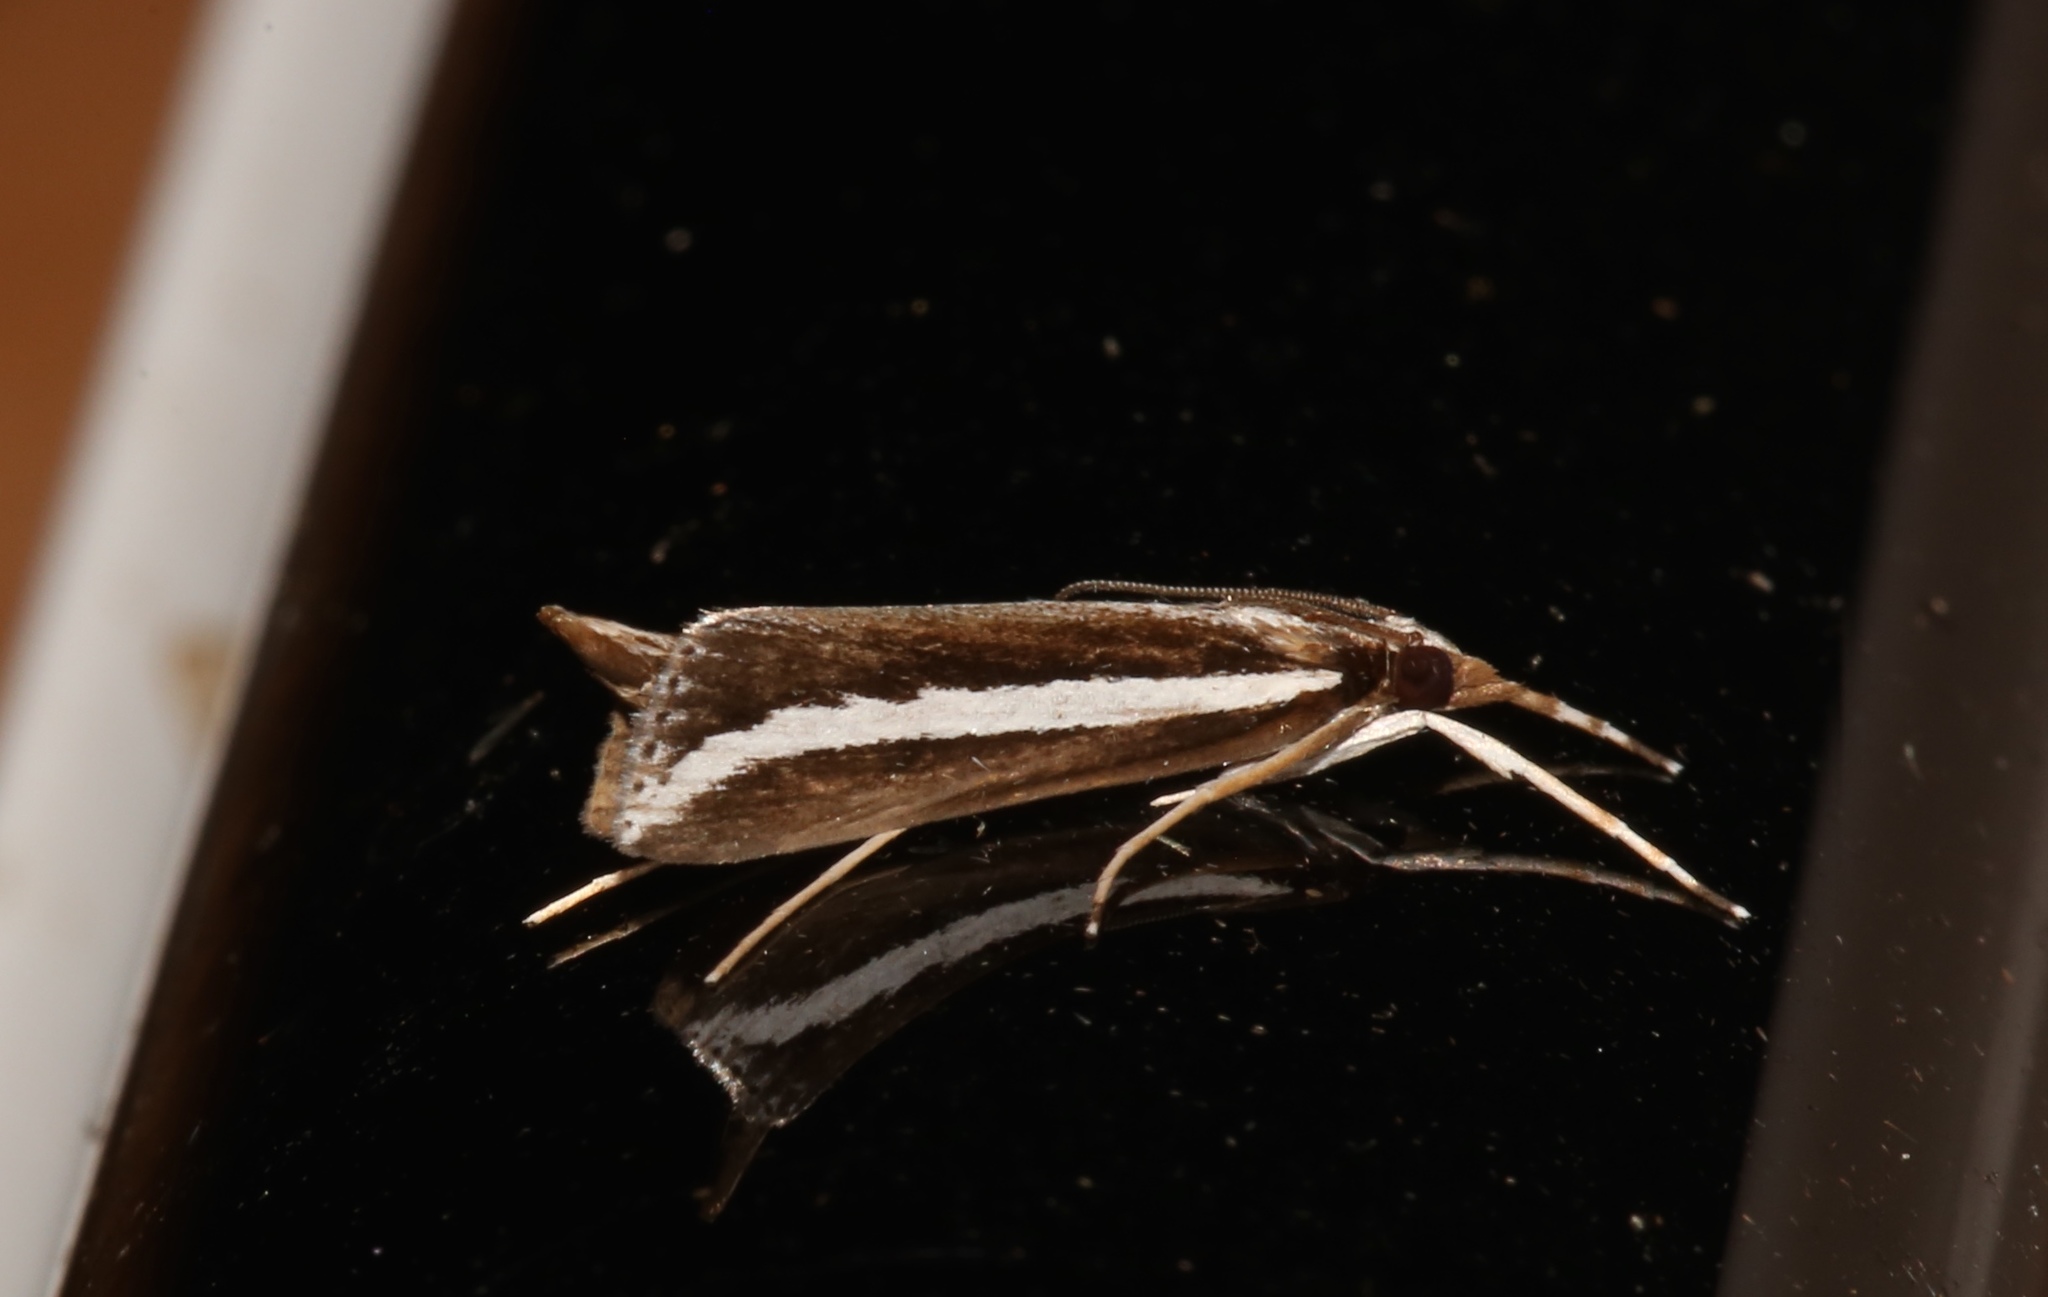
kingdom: Animalia
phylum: Arthropoda
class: Insecta
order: Lepidoptera
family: Crambidae
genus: Carectocultus
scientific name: Carectocultus perstrialis
